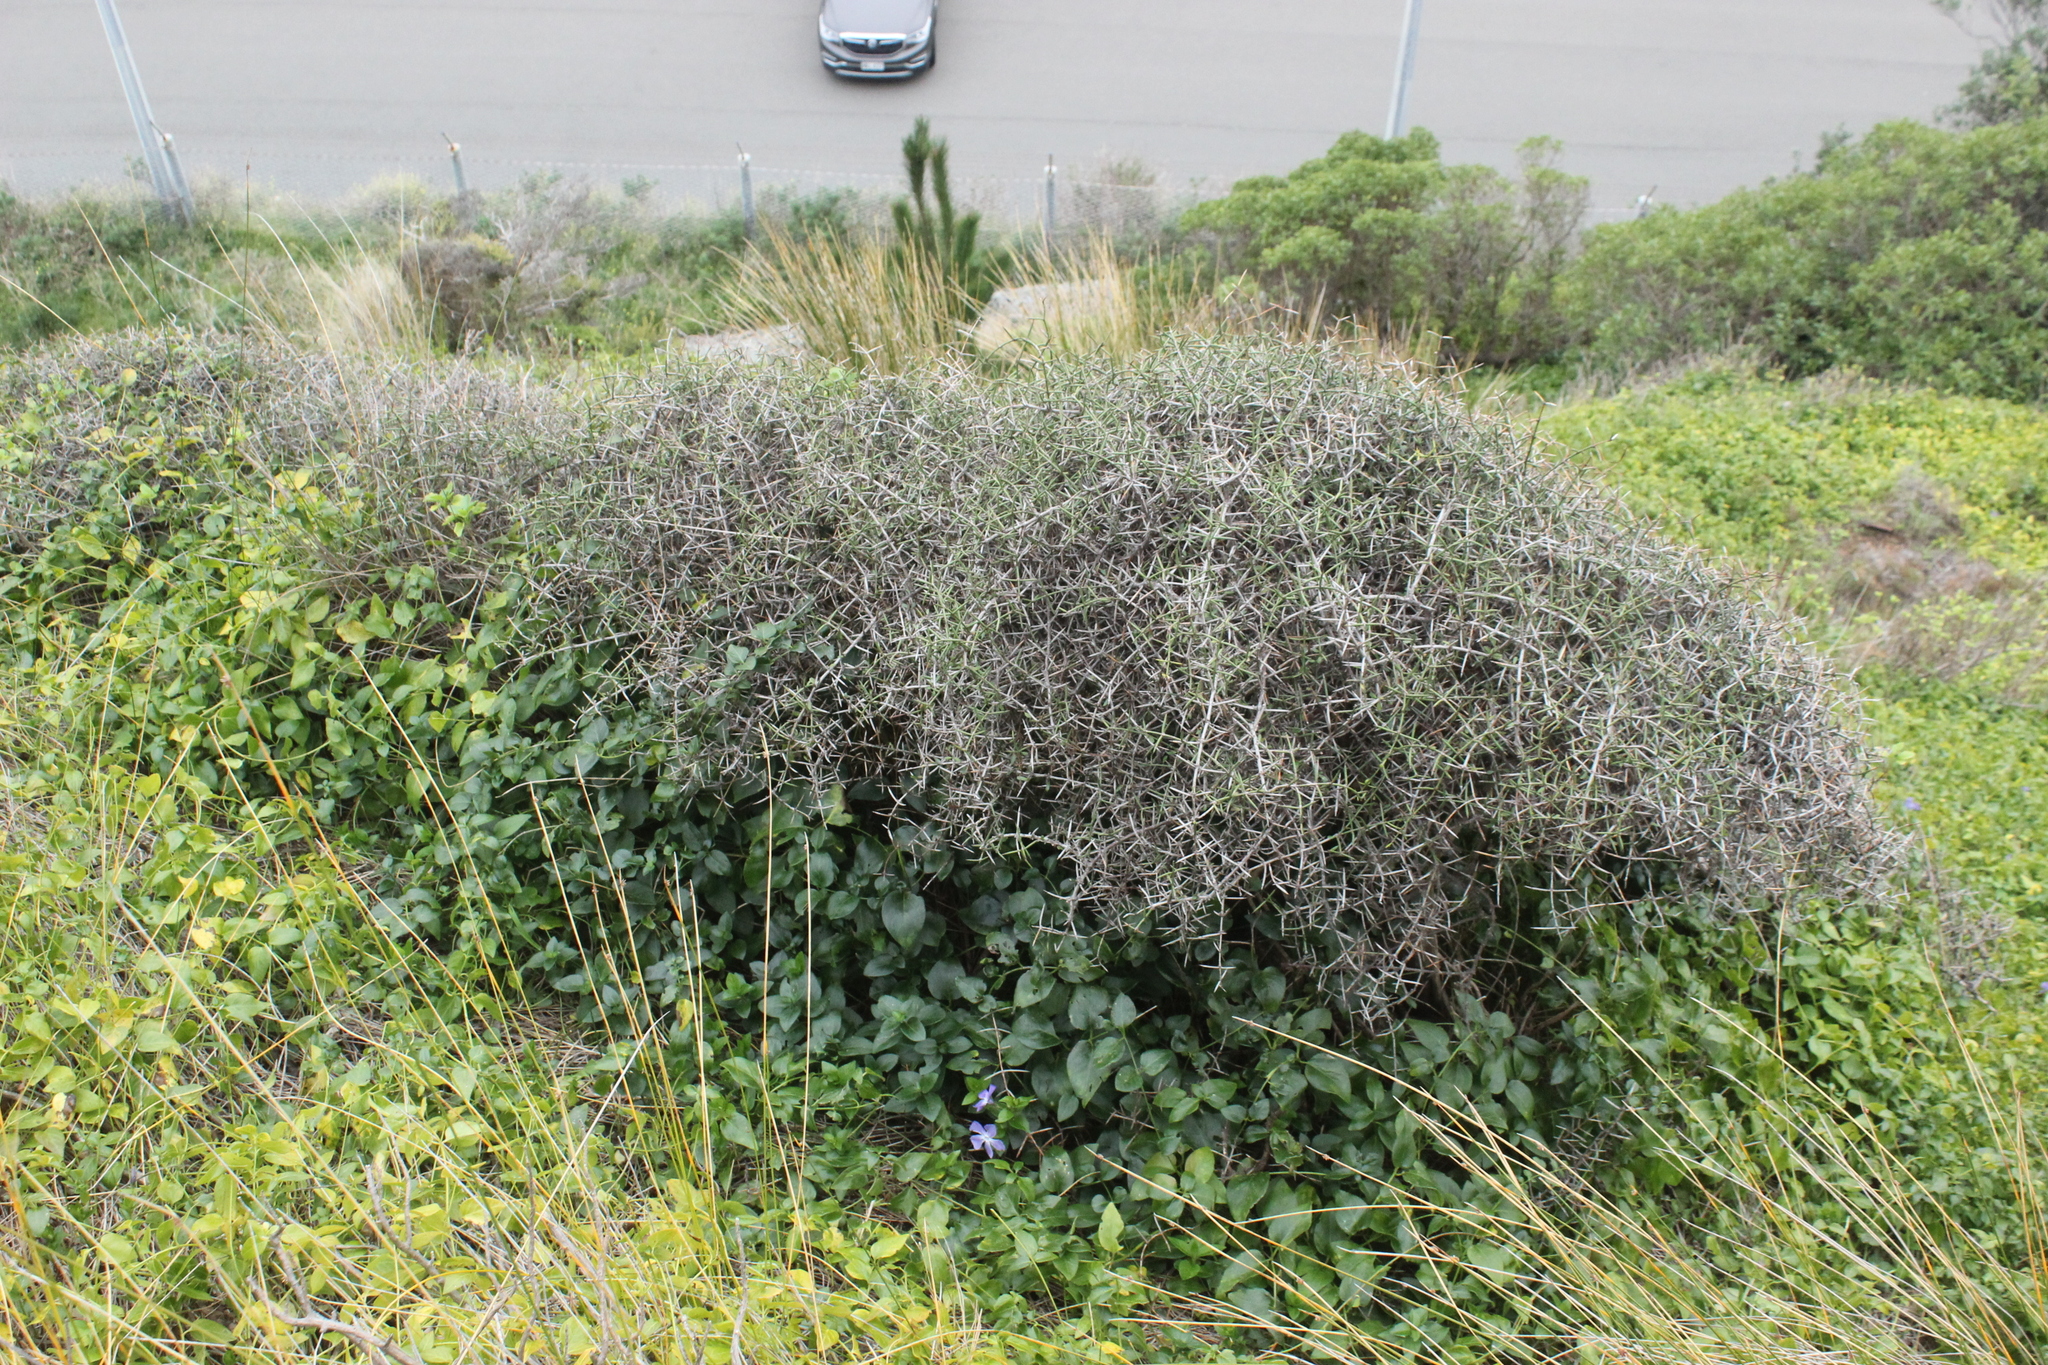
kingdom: Plantae
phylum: Tracheophyta
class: Magnoliopsida
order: Rosales
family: Rhamnaceae
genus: Discaria
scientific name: Discaria toumatou
